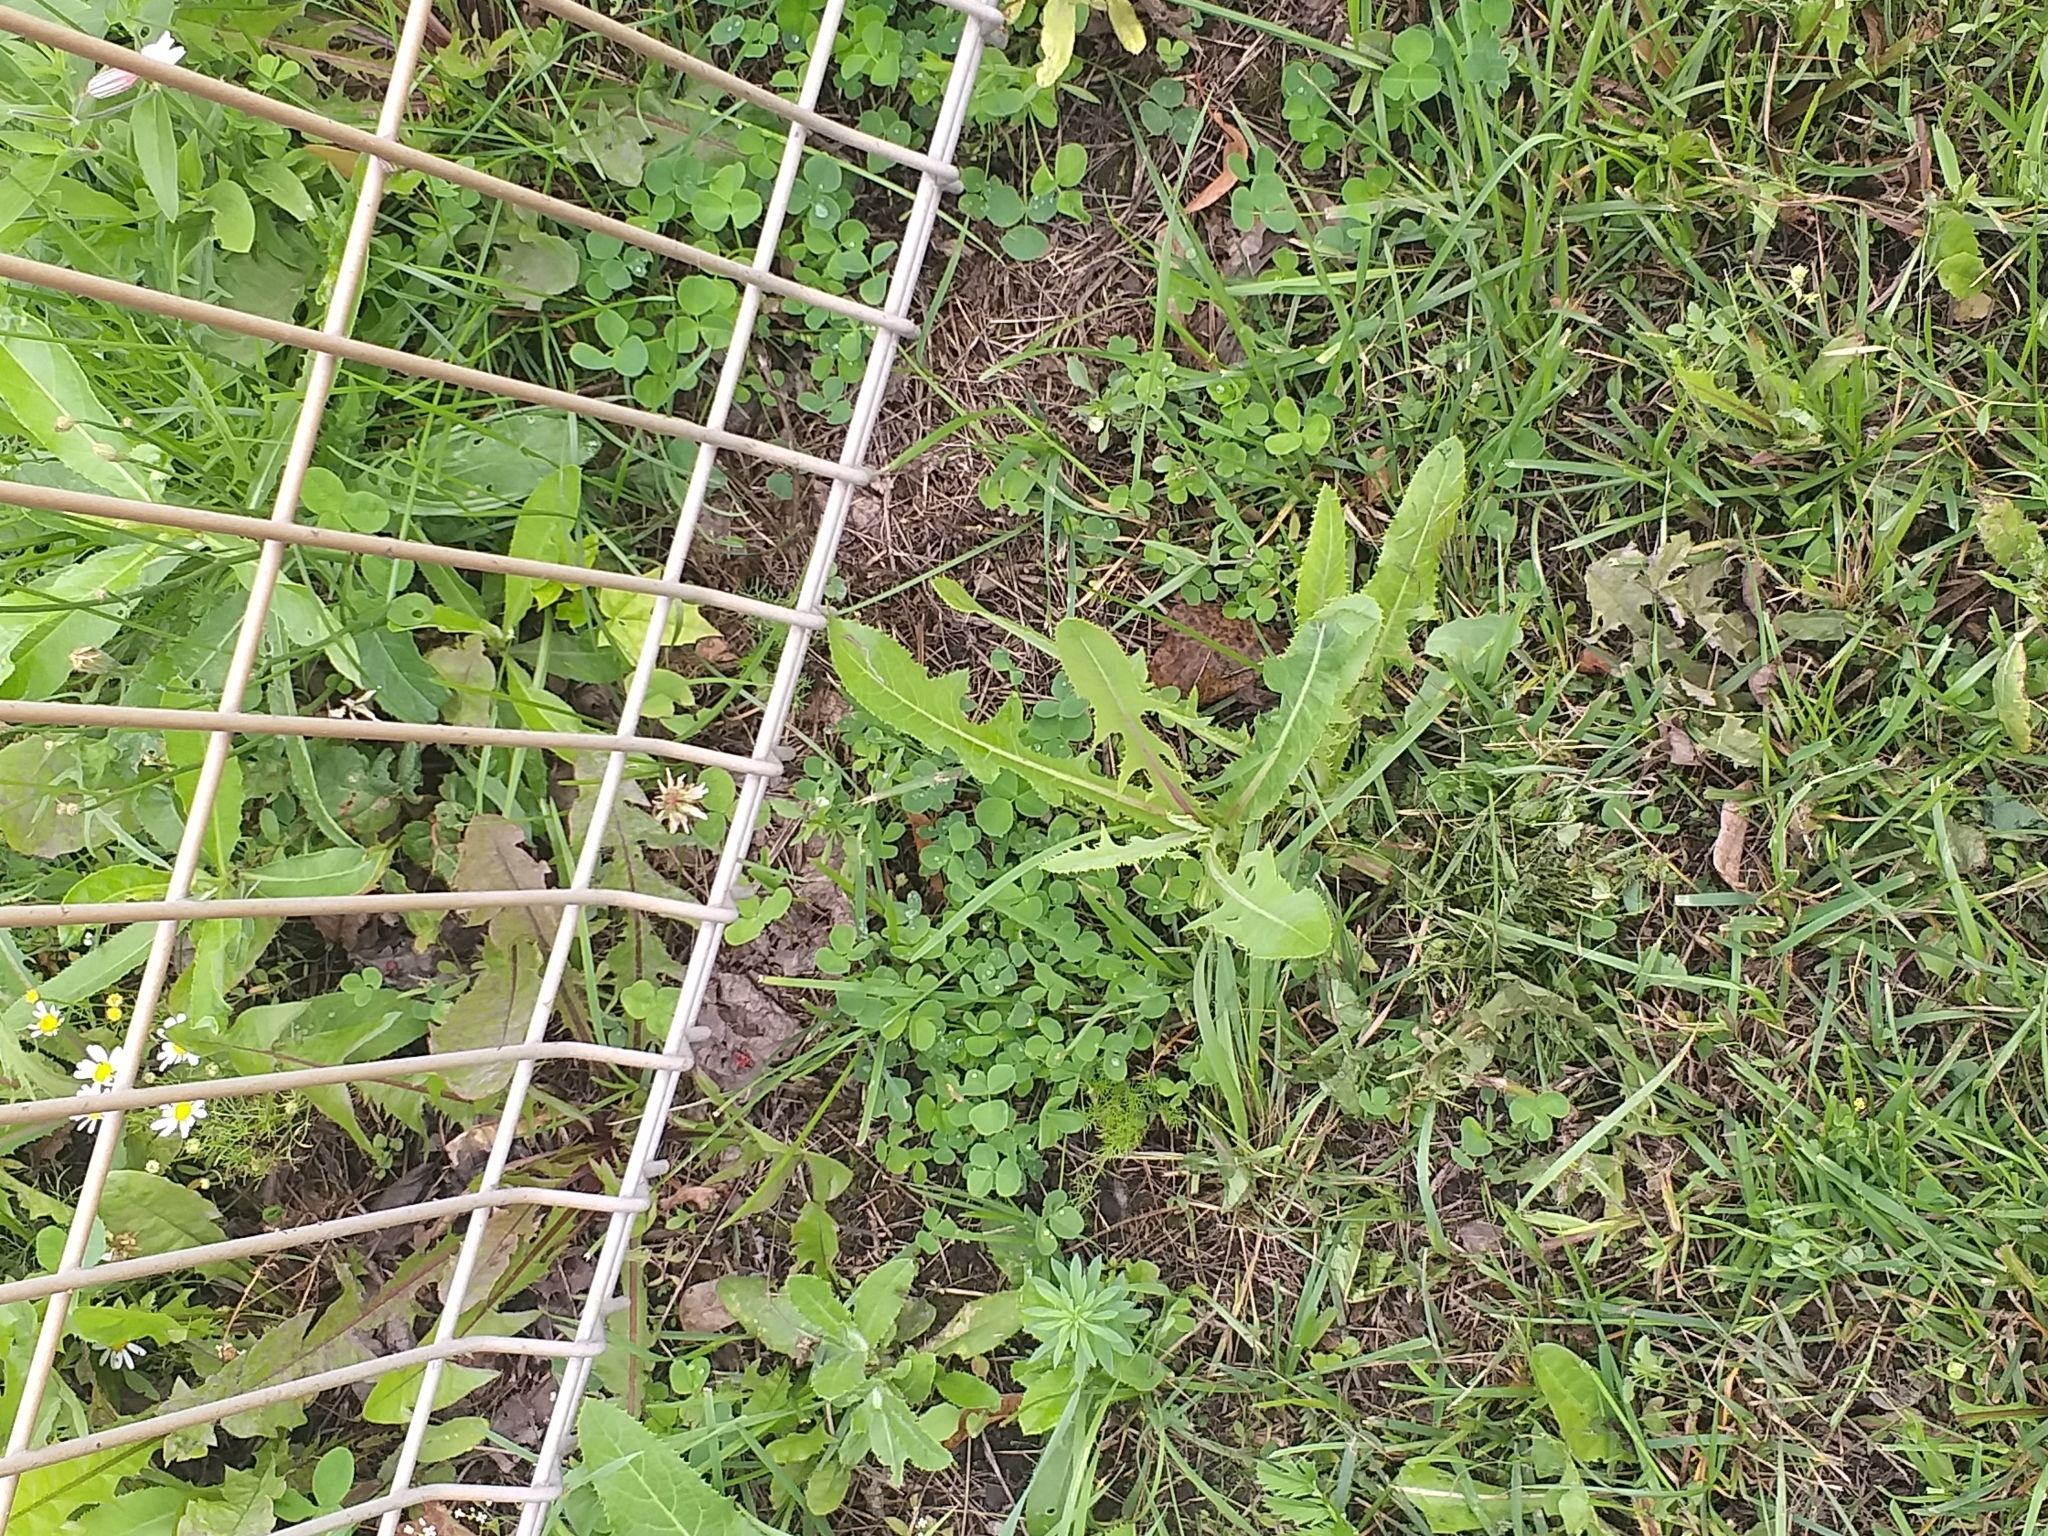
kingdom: Plantae
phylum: Tracheophyta
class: Magnoliopsida
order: Asterales
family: Asteraceae
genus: Sonchus
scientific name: Sonchus arvensis
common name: Perennial sow-thistle
